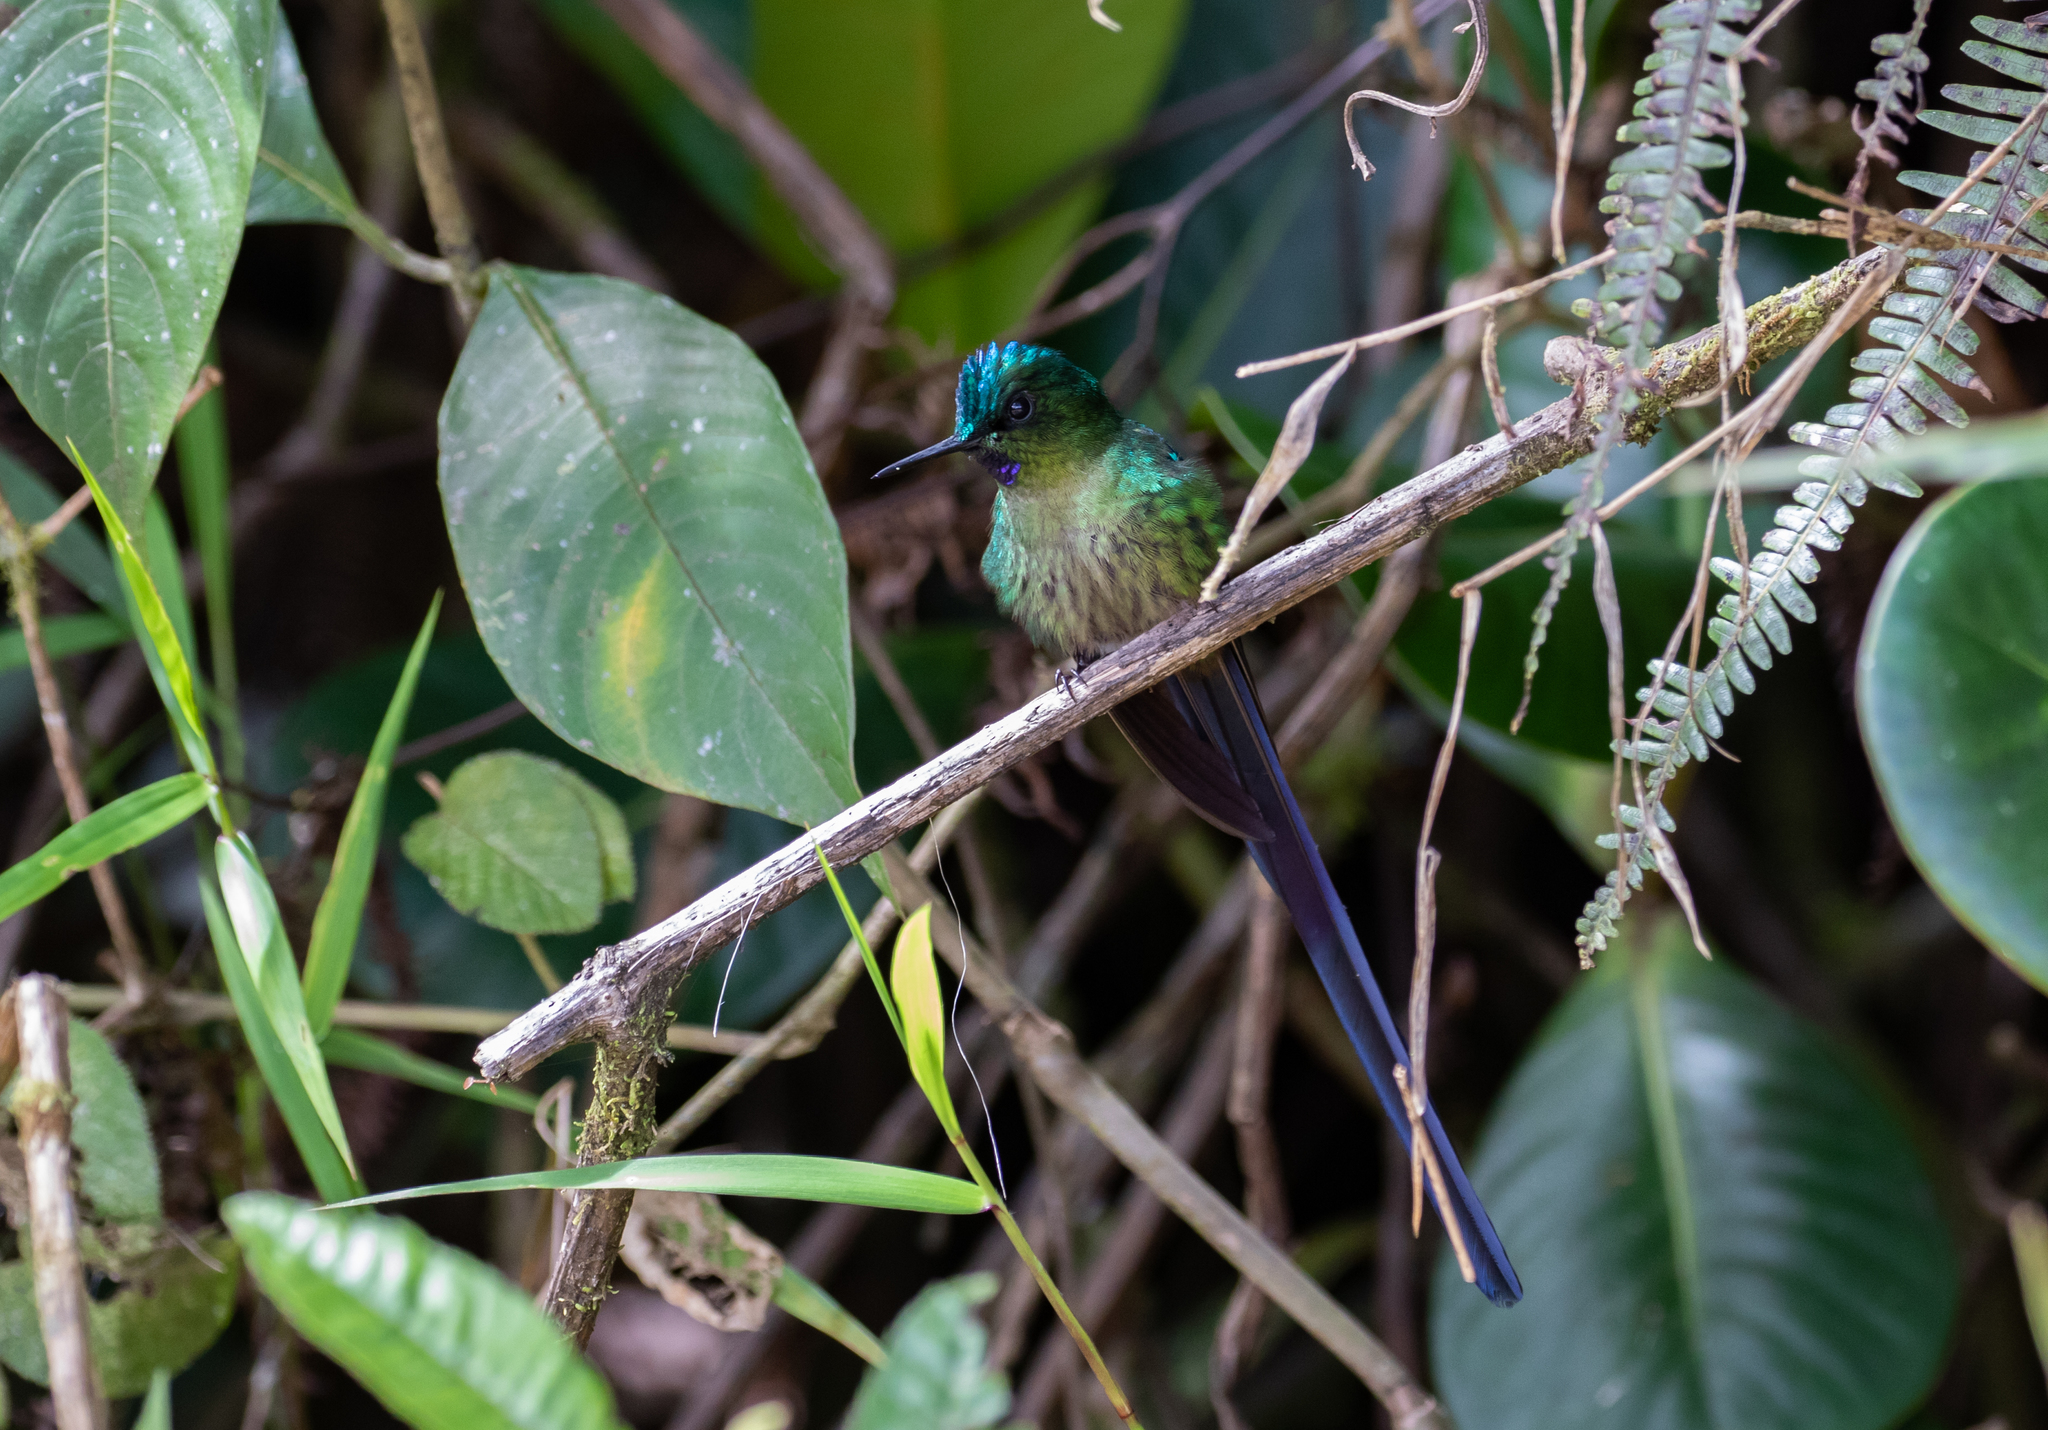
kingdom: Animalia
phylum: Chordata
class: Aves
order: Apodiformes
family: Trochilidae
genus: Aglaiocercus
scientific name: Aglaiocercus coelestis
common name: Violet-tailed sylph
